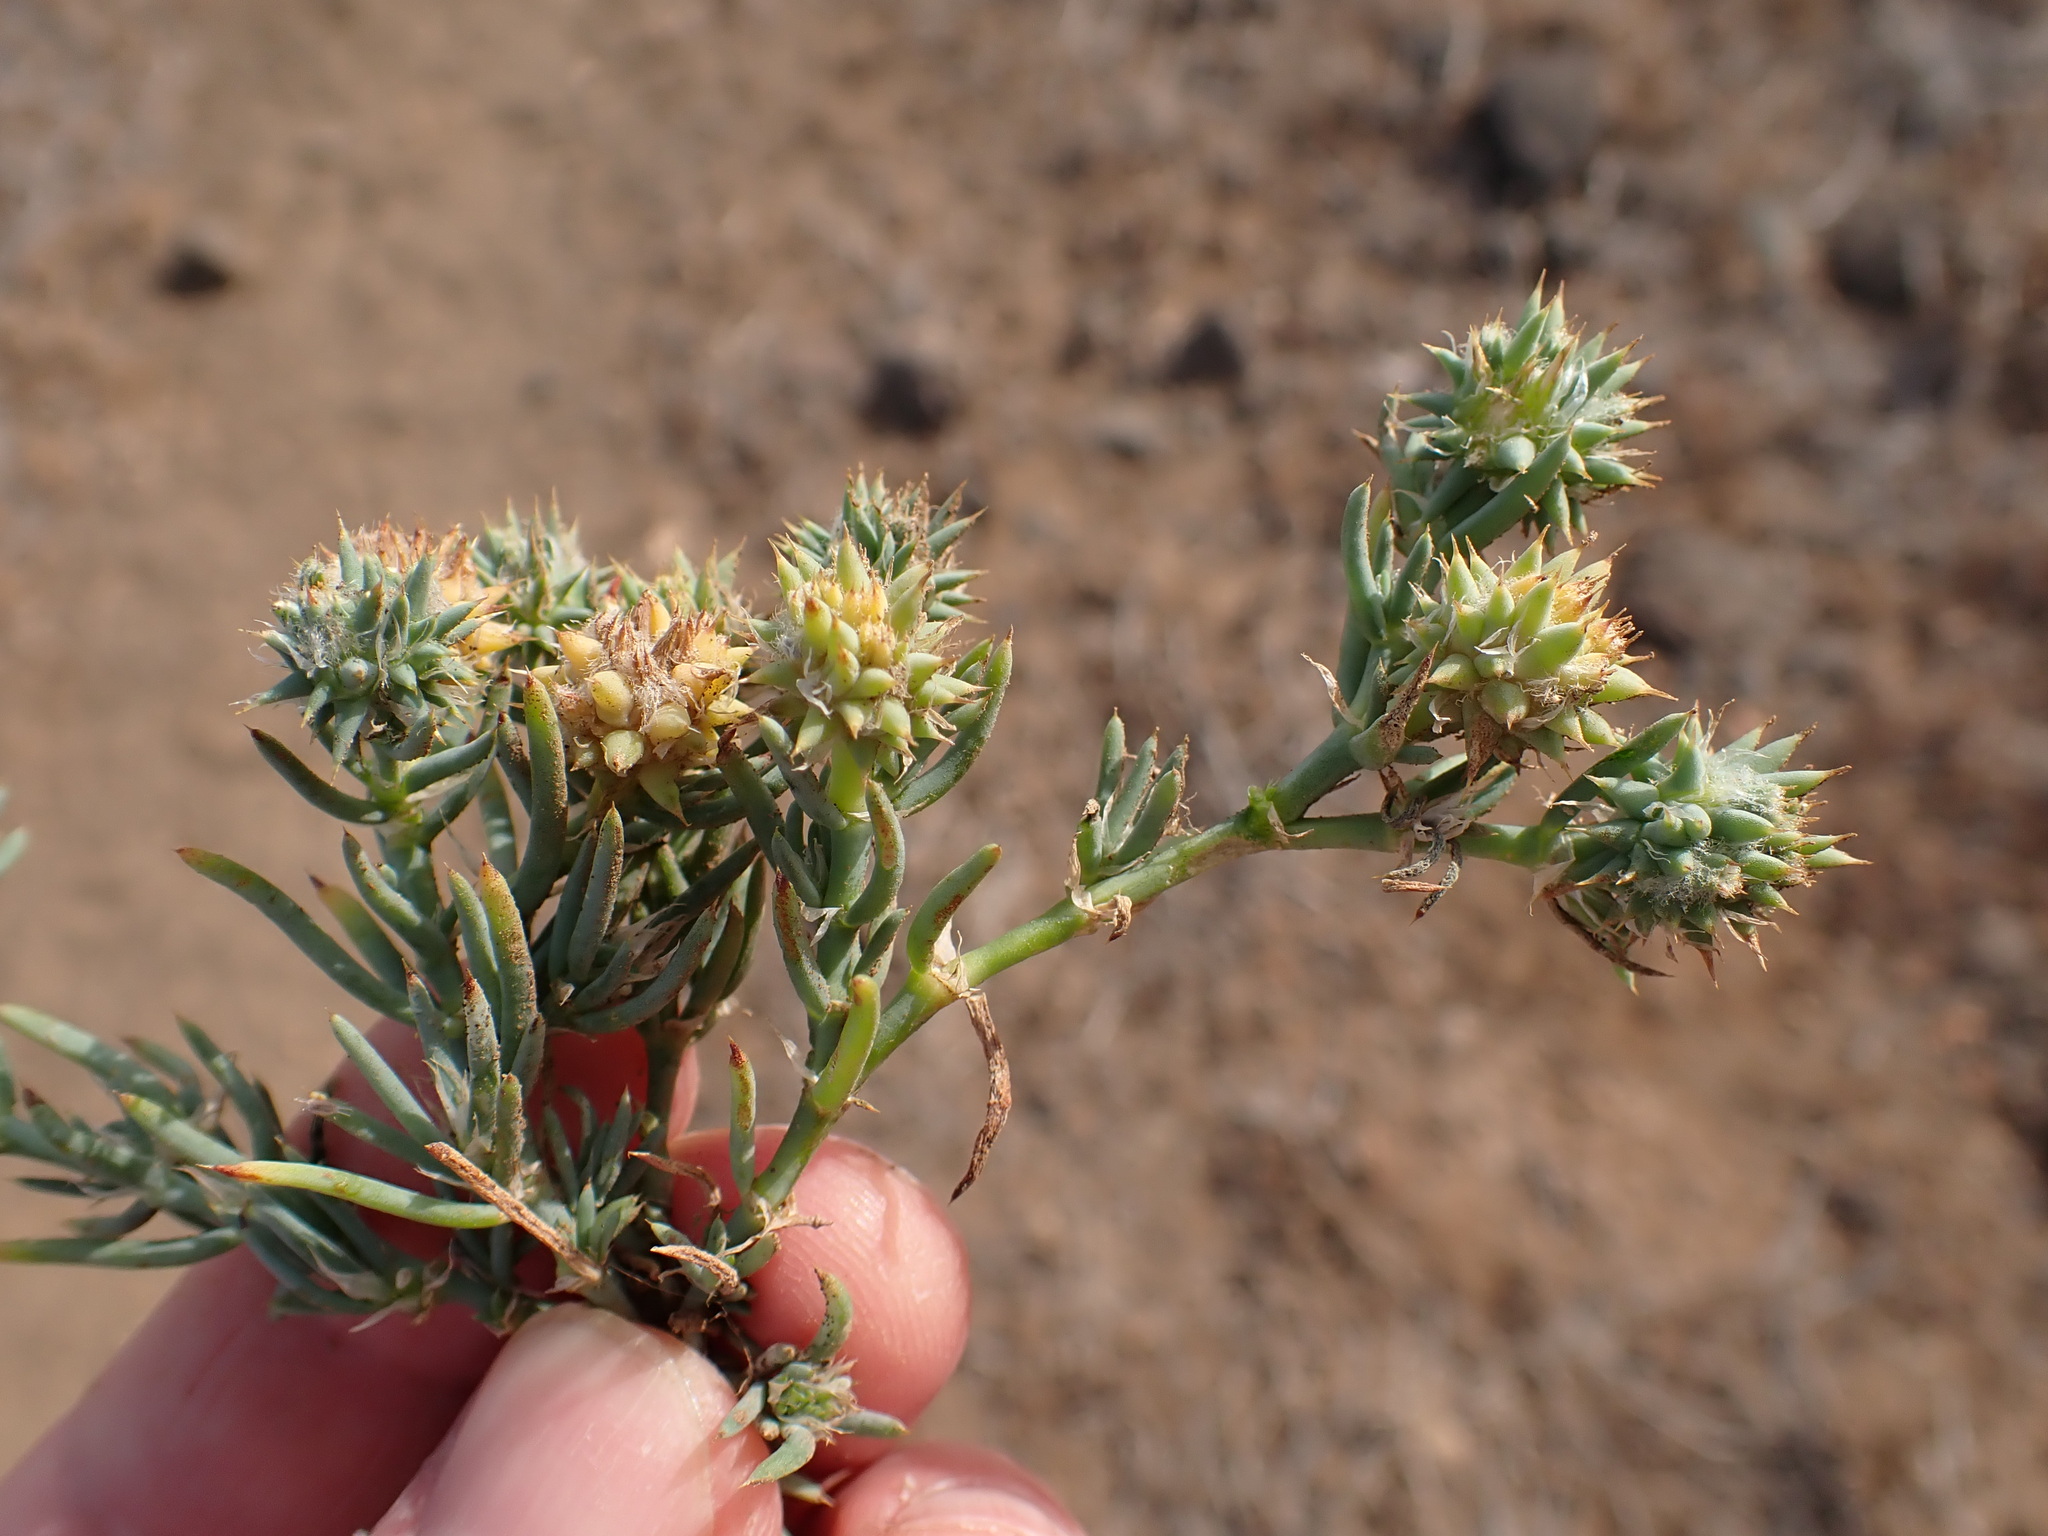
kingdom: Plantae
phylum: Tracheophyta
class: Magnoliopsida
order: Caryophyllales
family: Caryophyllaceae
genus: Gymnocarpos
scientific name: Gymnocarpos sclerocephalus
